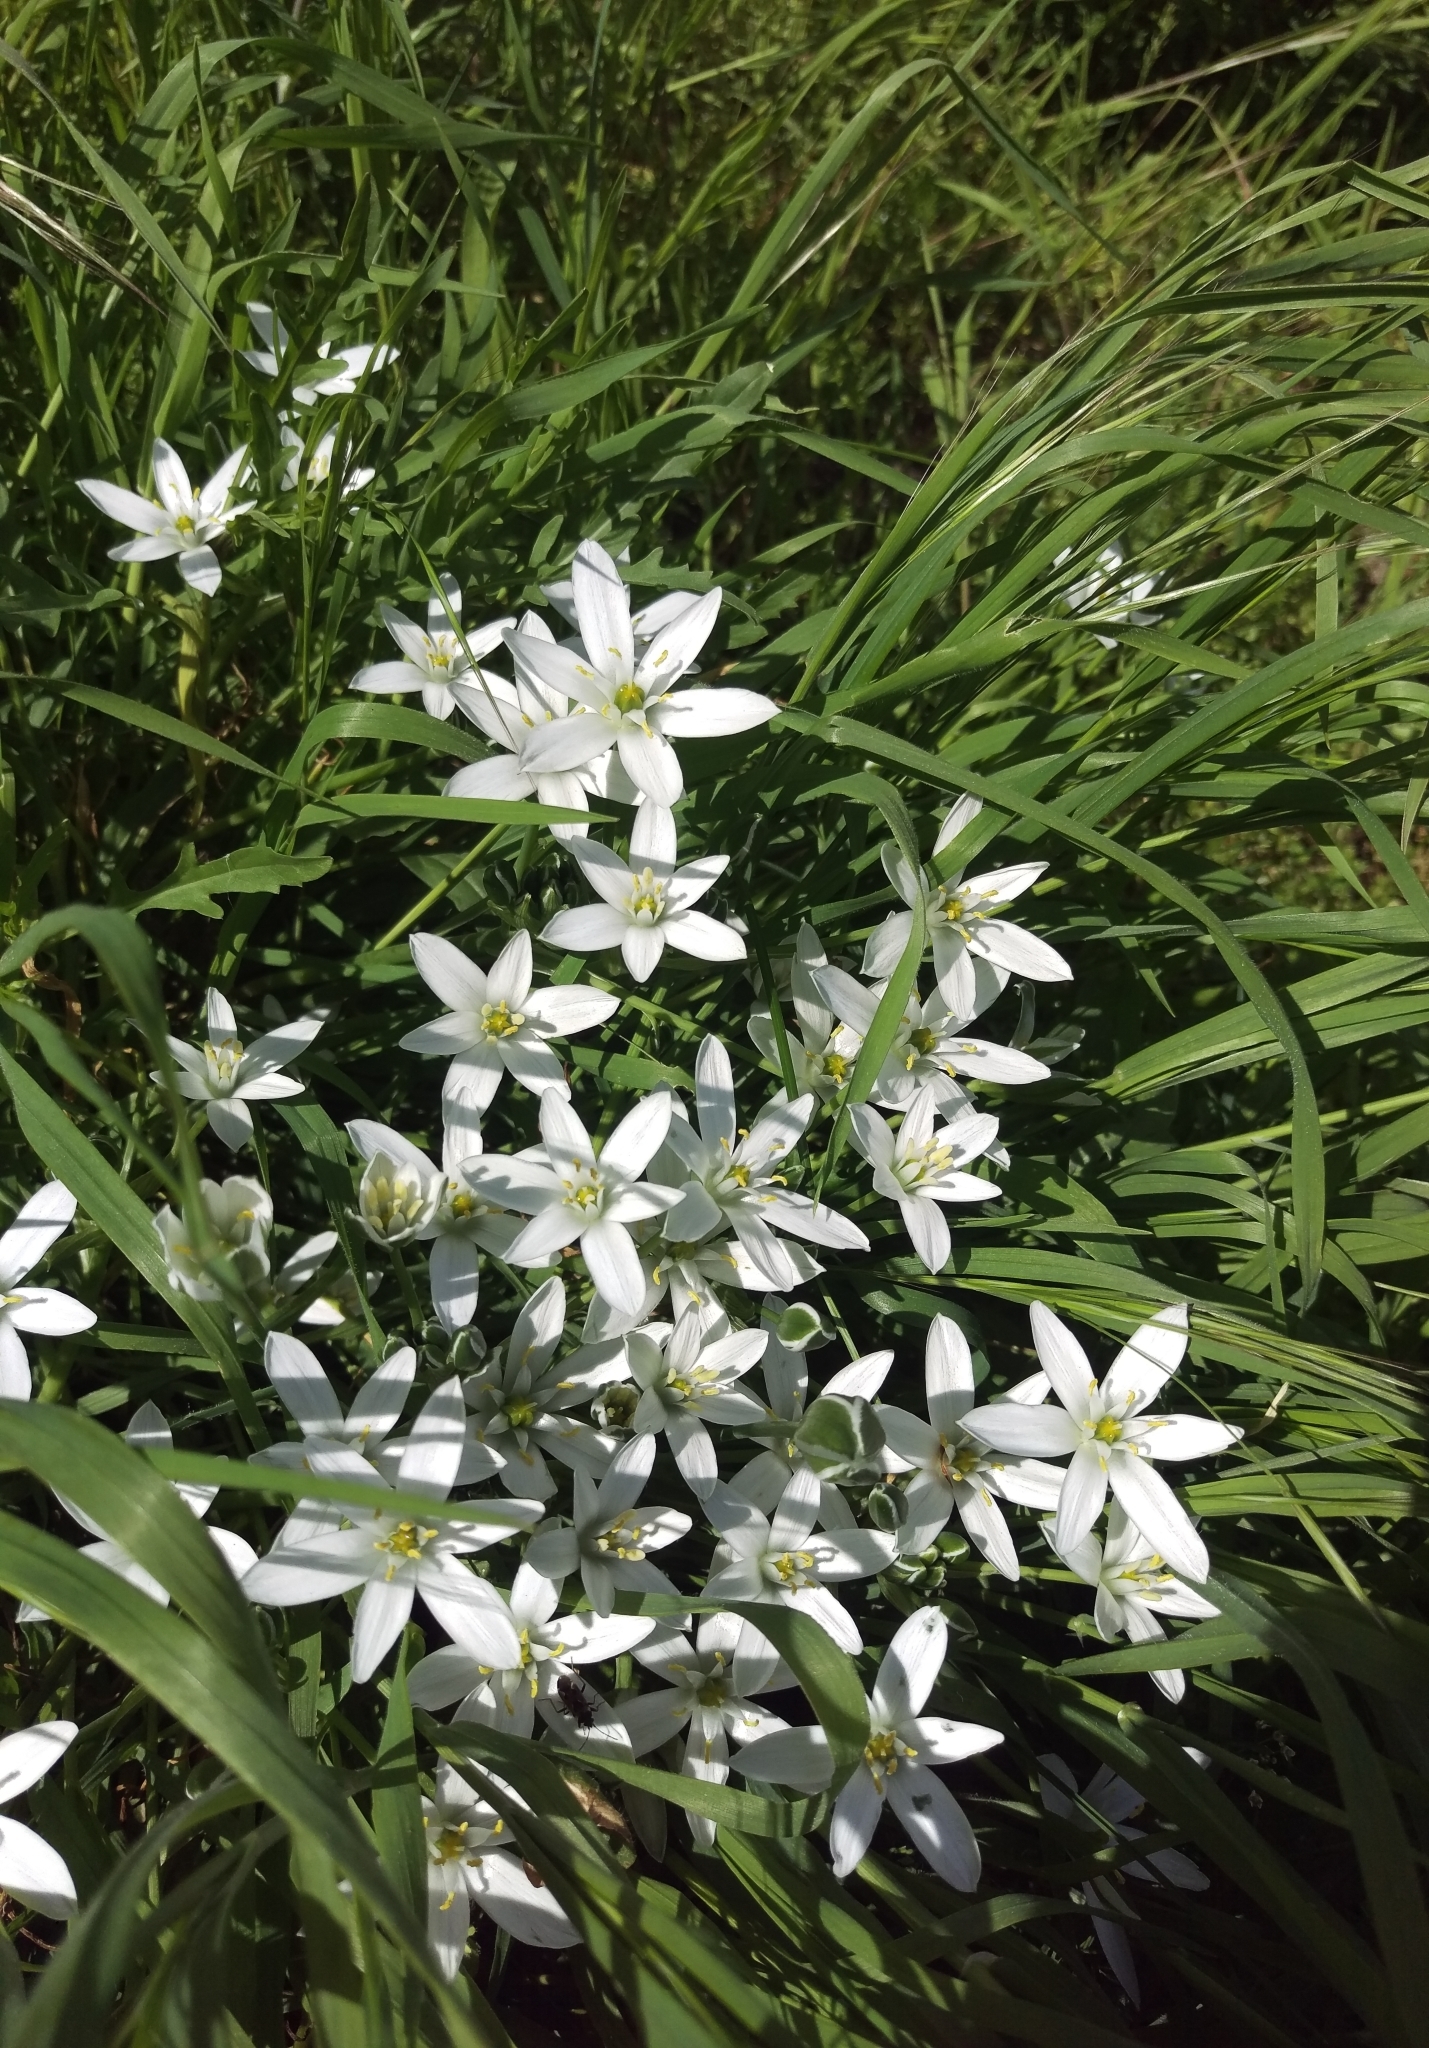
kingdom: Plantae
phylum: Tracheophyta
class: Liliopsida
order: Asparagales
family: Asparagaceae
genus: Ornithogalum
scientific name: Ornithogalum umbellatum
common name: Garden star-of-bethlehem
